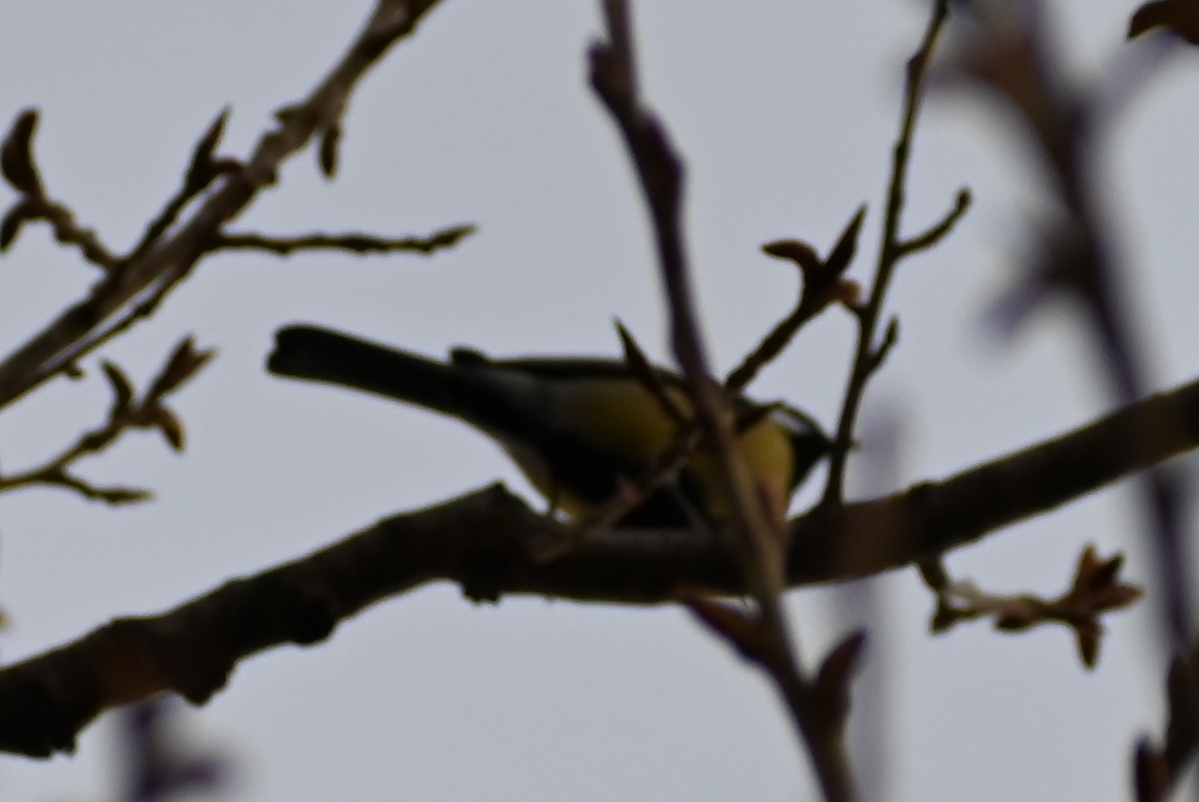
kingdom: Animalia
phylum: Chordata
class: Aves
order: Passeriformes
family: Paridae
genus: Parus
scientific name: Parus major
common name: Great tit
